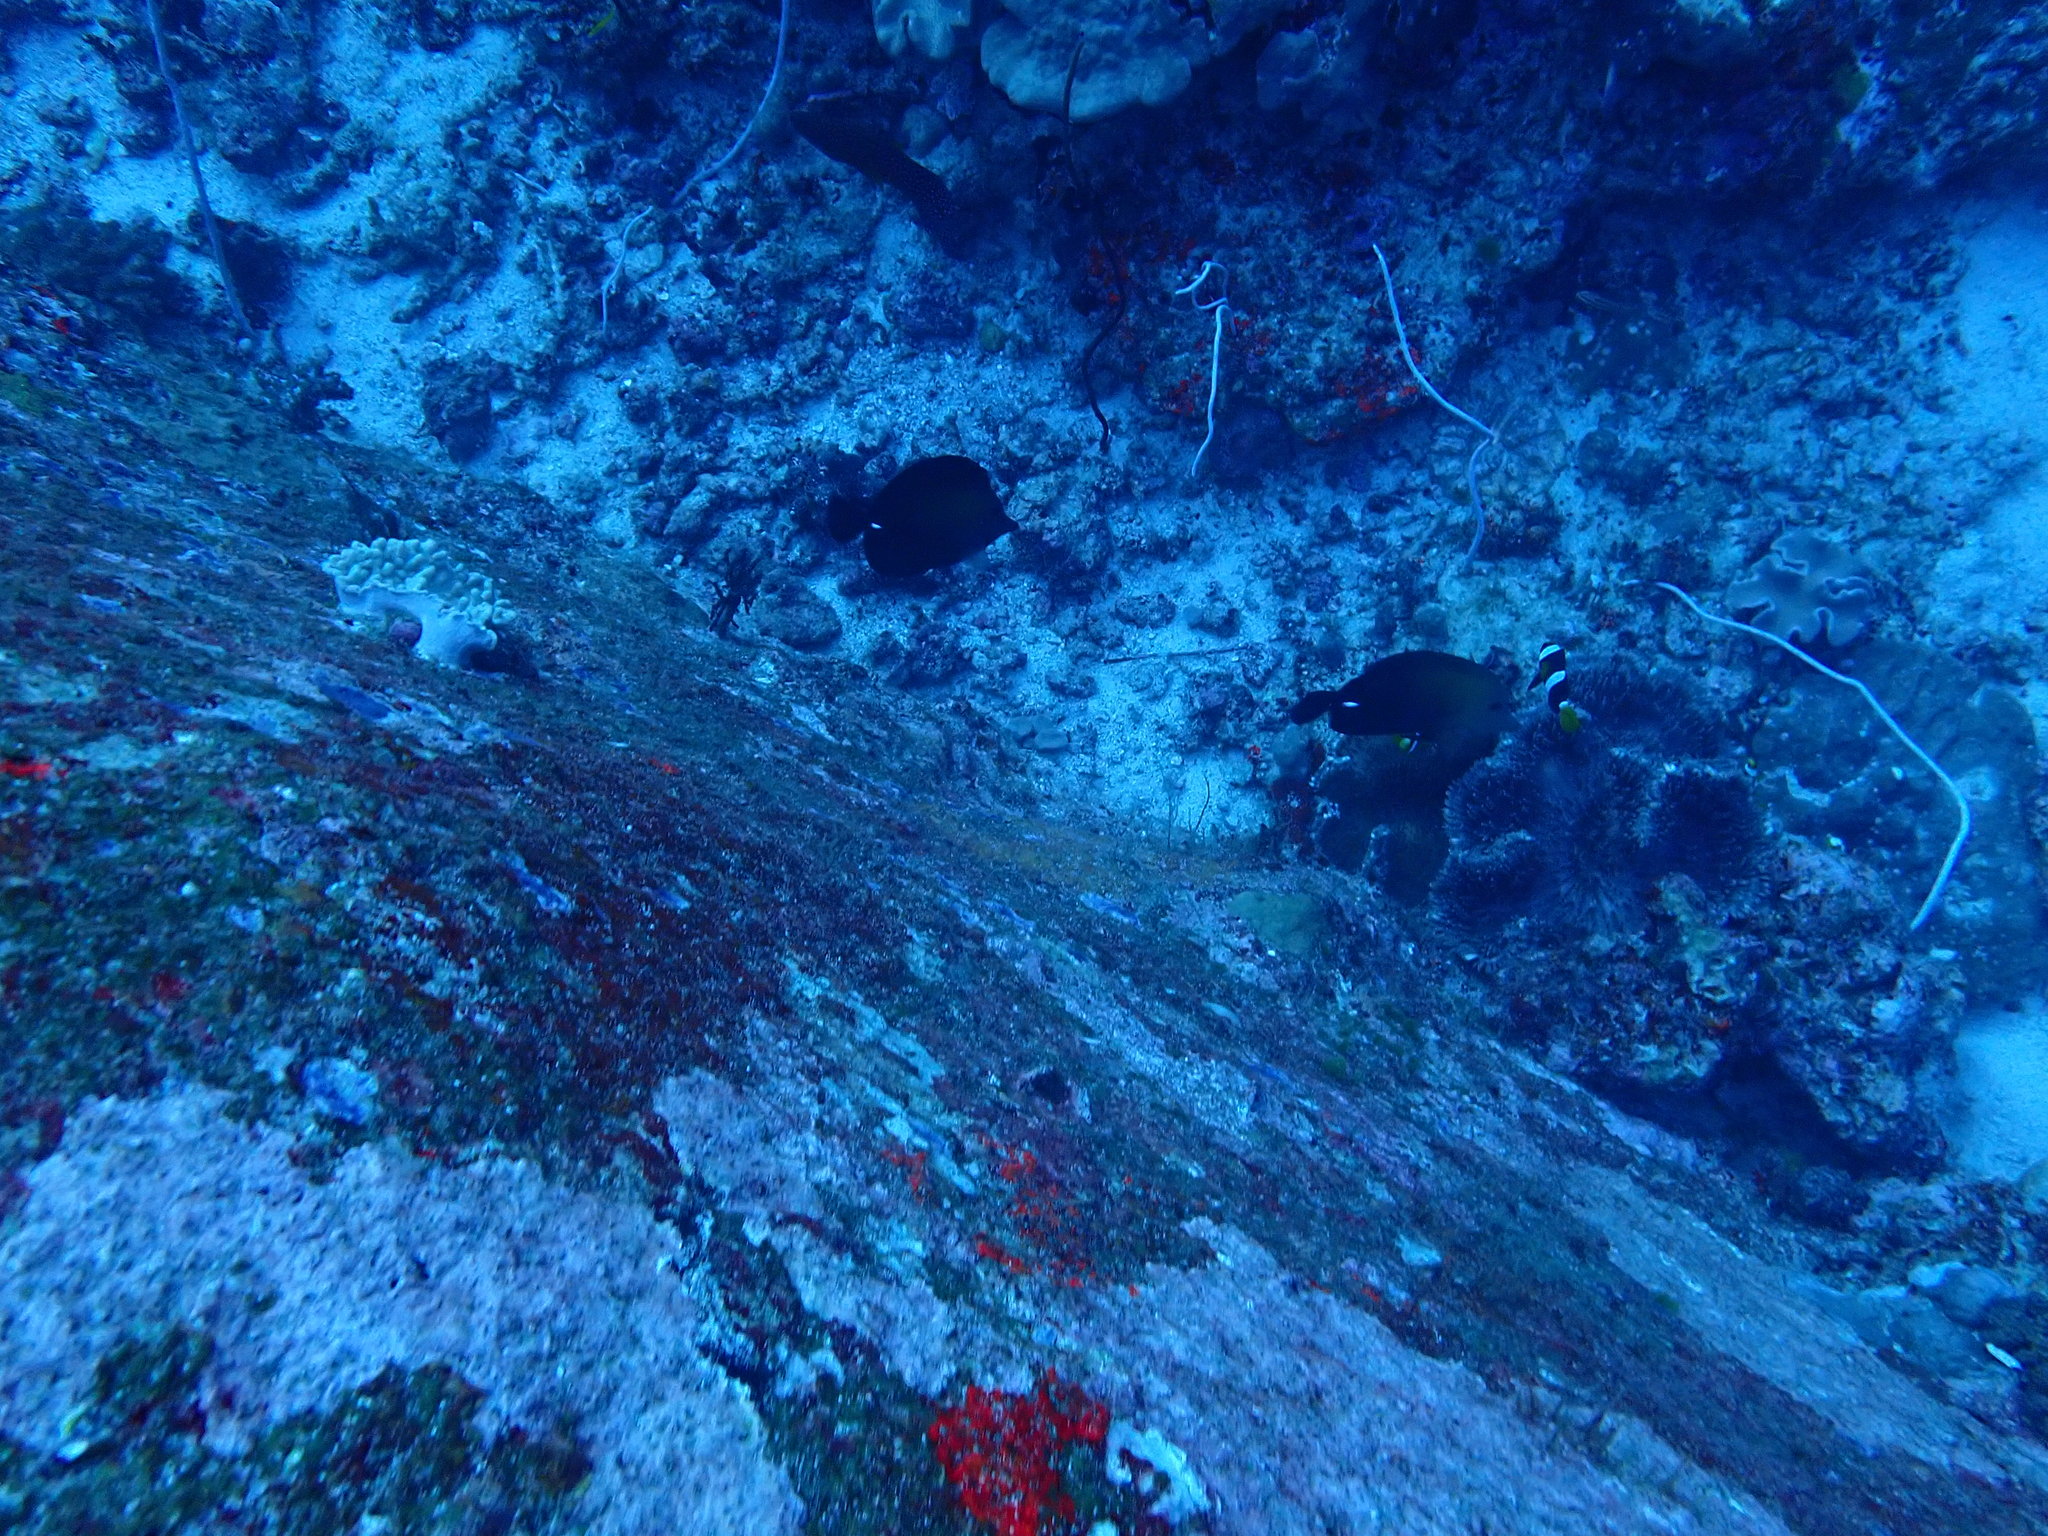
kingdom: Animalia
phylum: Chordata
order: Perciformes
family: Acanthuridae
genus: Zebrasoma
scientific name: Zebrasoma scopas
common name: Twotone tang
